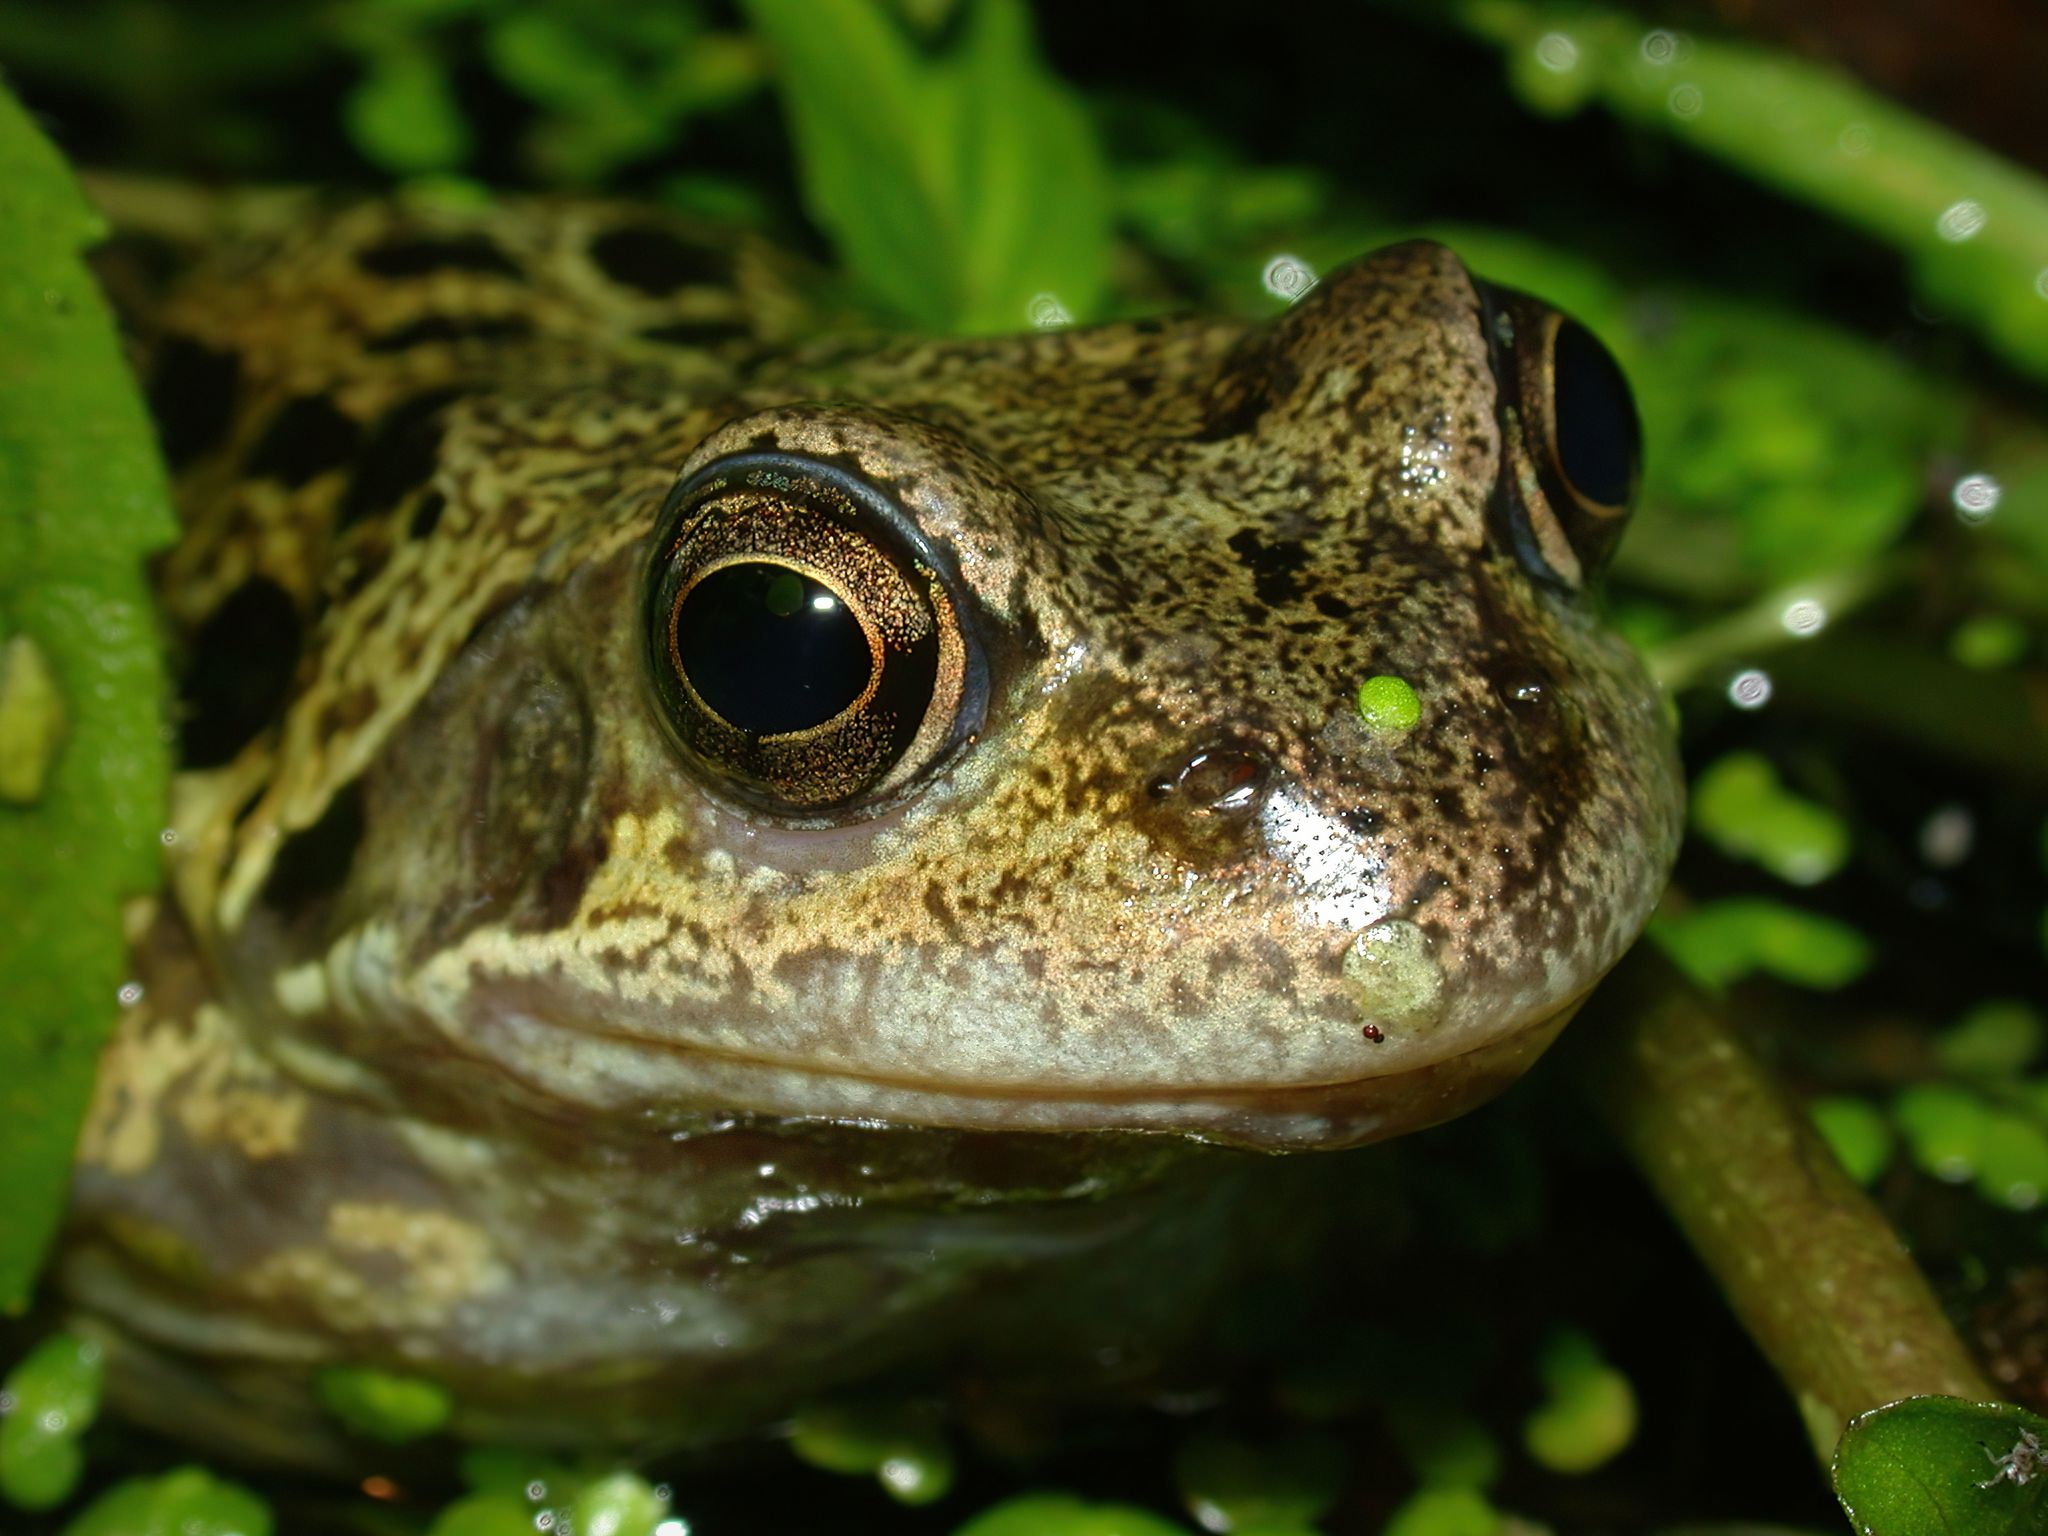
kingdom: Animalia
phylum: Chordata
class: Amphibia
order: Anura
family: Ranidae
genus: Rana
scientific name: Rana temporaria
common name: Common frog
